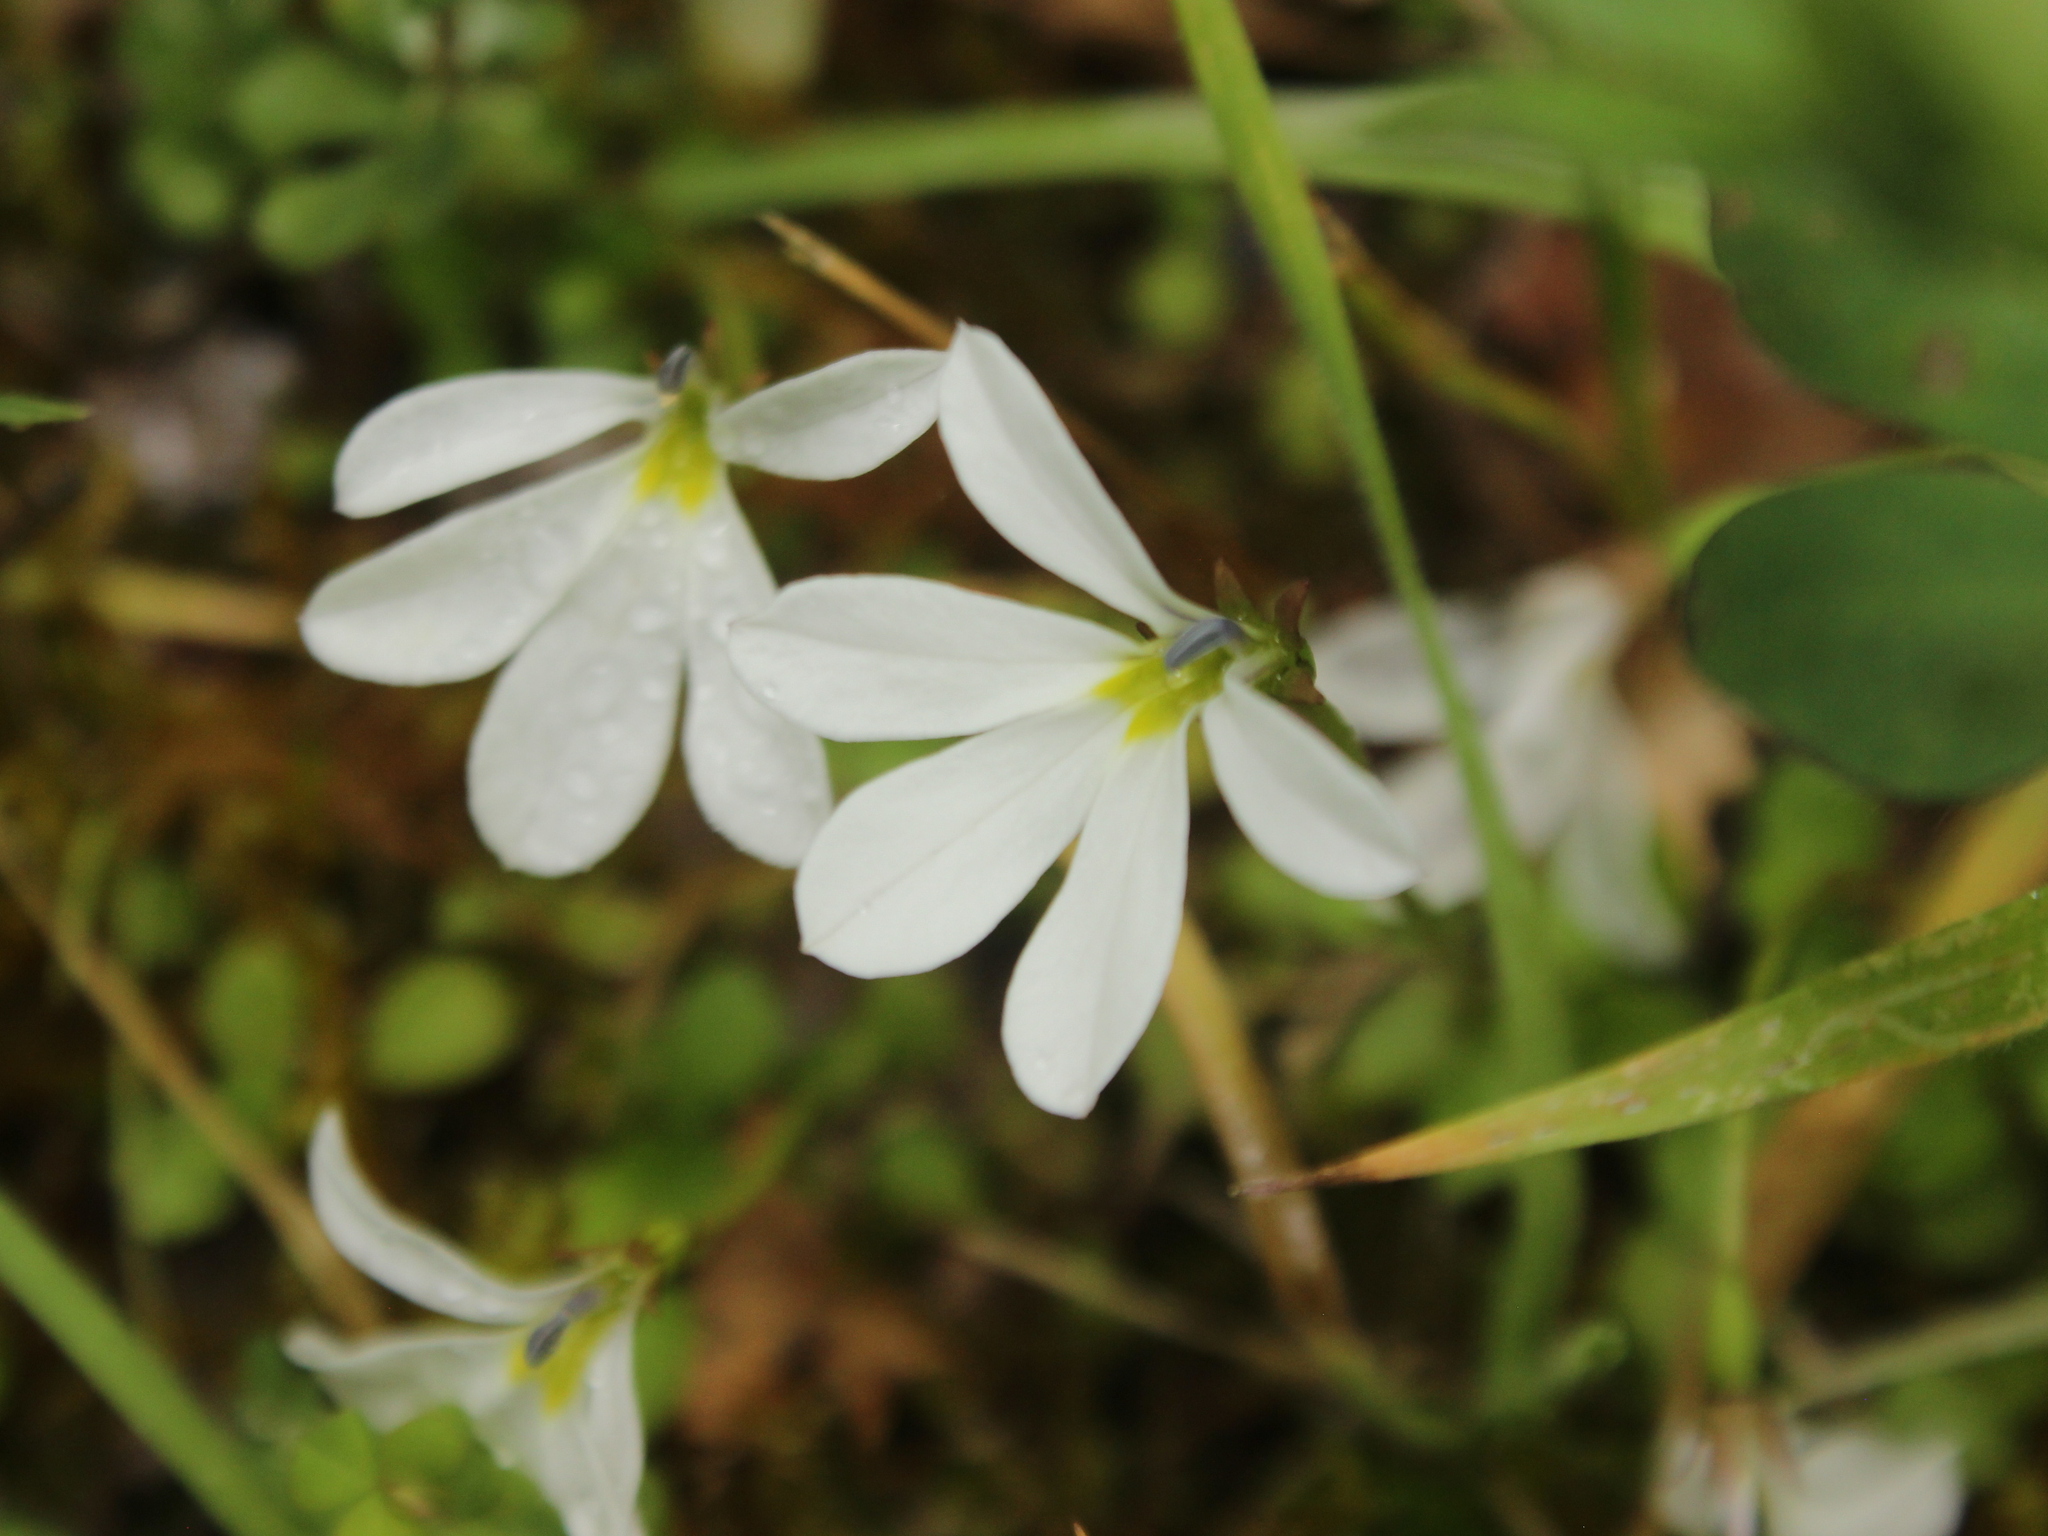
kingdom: Plantae
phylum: Tracheophyta
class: Magnoliopsida
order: Asterales
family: Campanulaceae
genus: Lobelia
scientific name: Lobelia angulata
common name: Lawn lobelia
